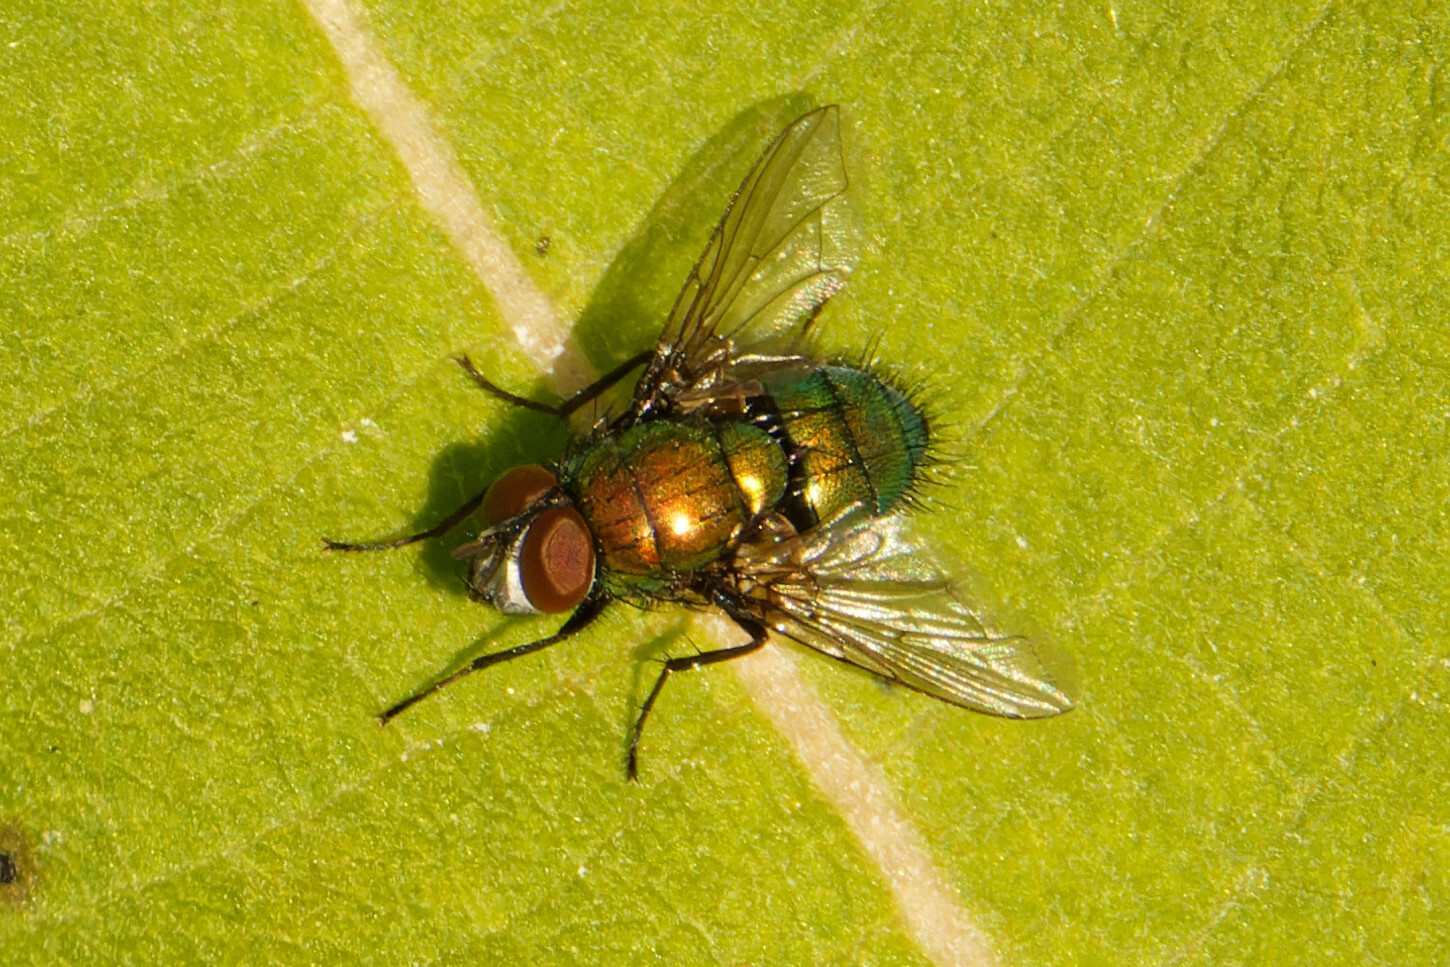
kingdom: Animalia
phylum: Arthropoda
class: Insecta
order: Diptera
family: Calliphoridae
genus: Lucilia
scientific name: Lucilia silvarum
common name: Marsh greenbottle
